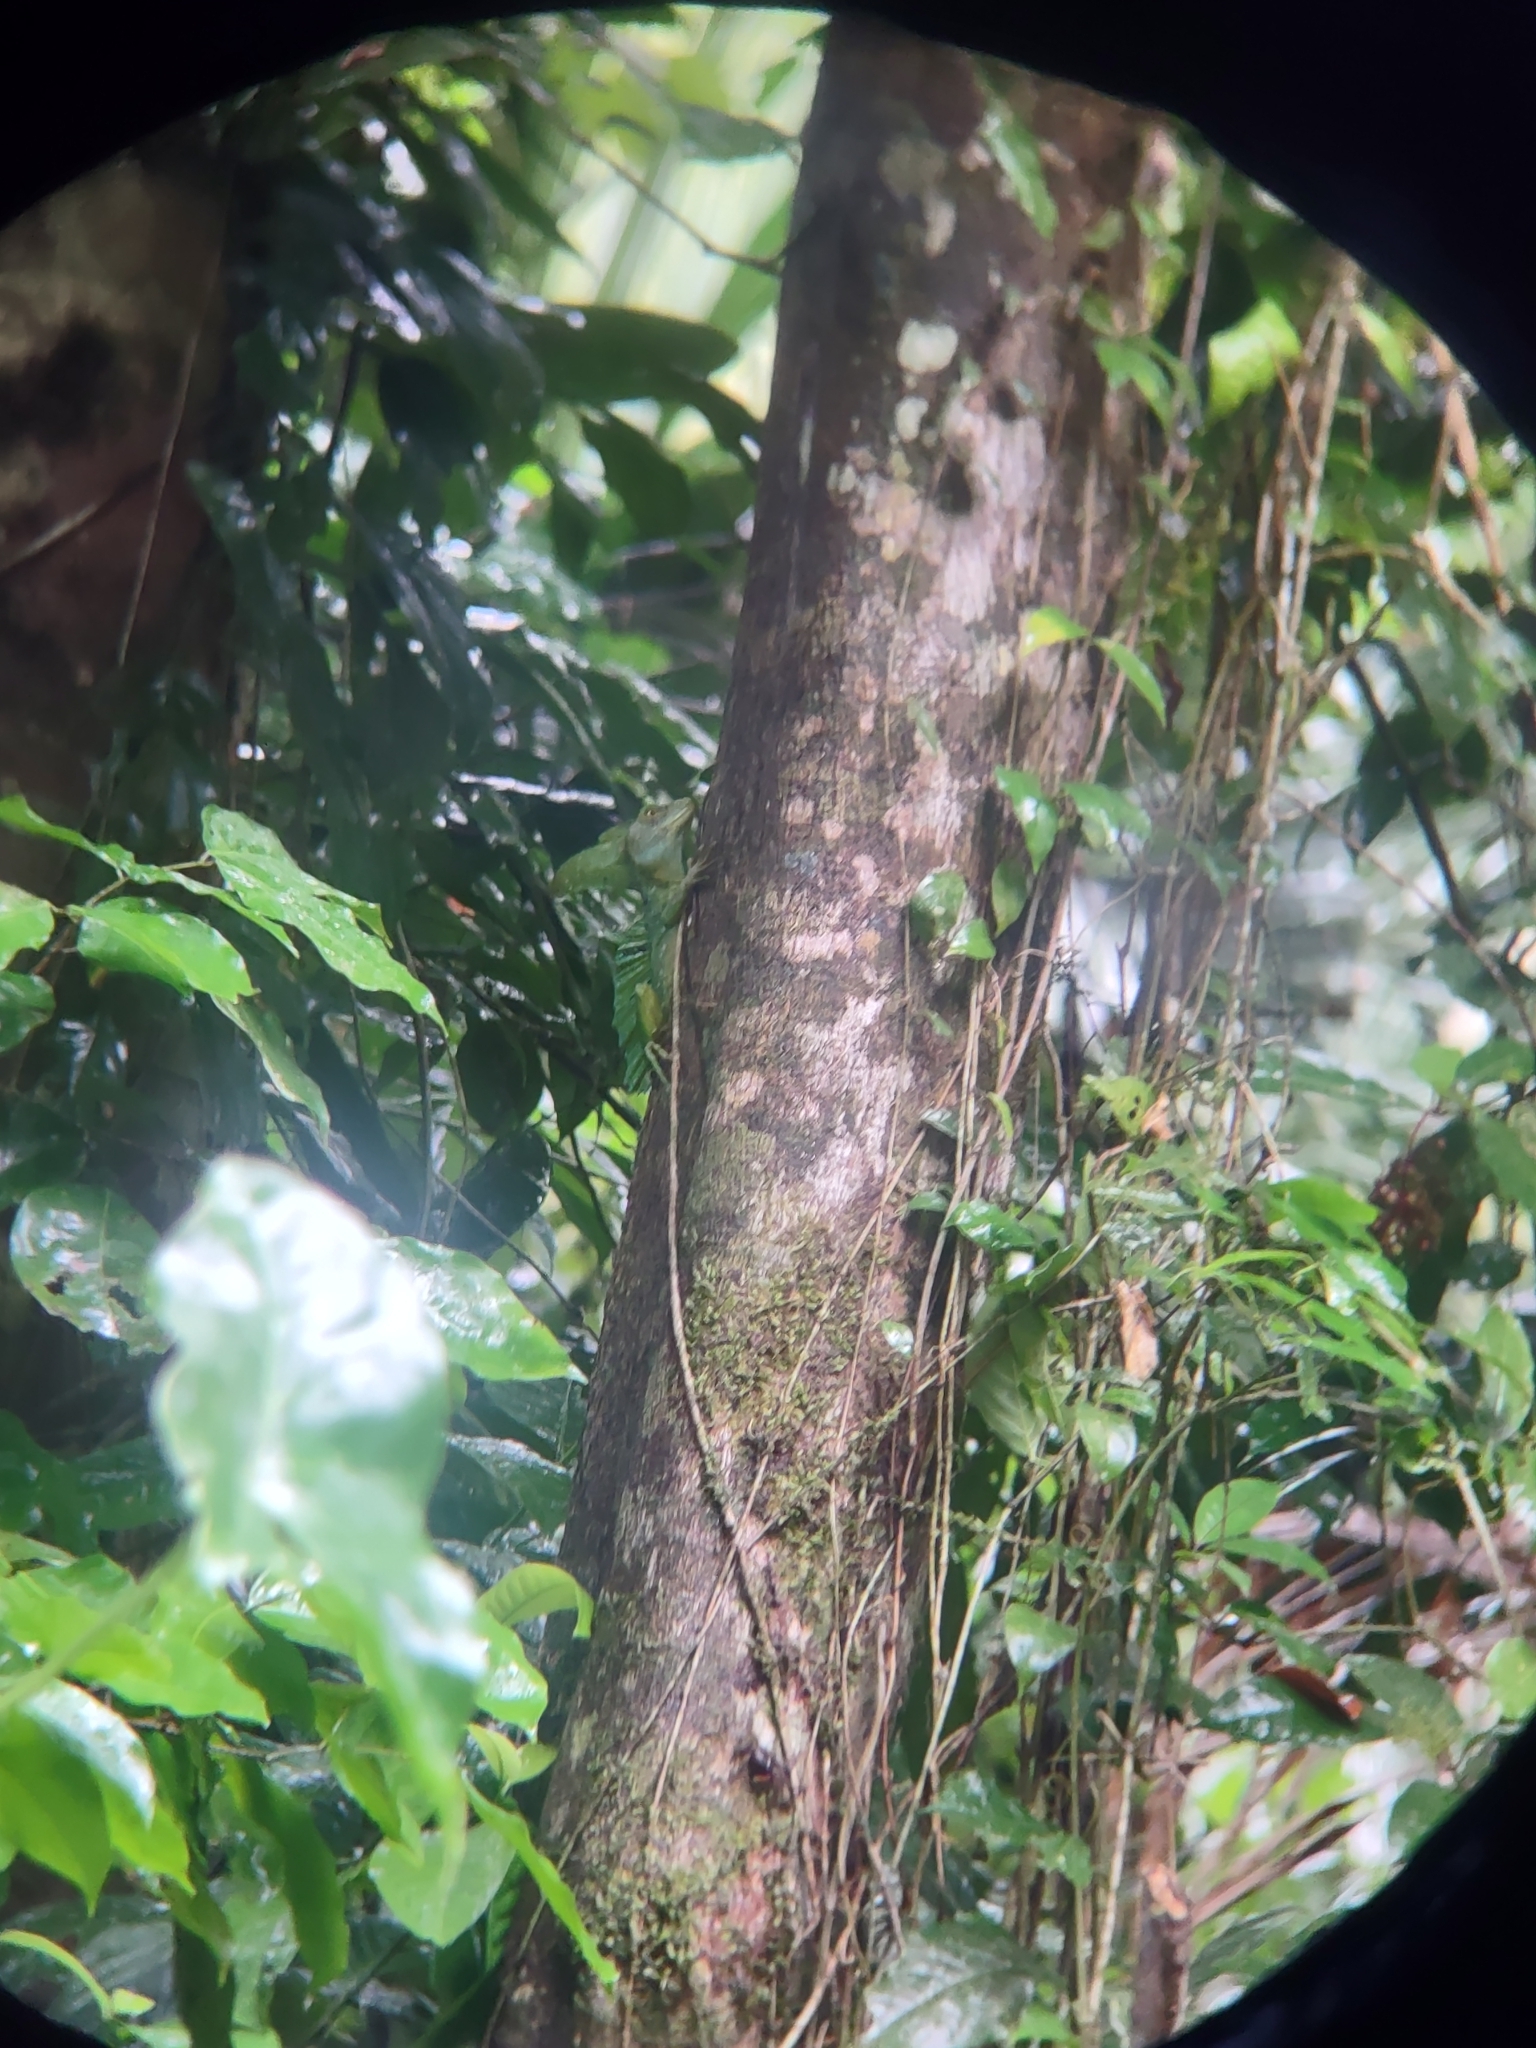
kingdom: Animalia
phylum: Chordata
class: Squamata
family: Corytophanidae
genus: Basiliscus
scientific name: Basiliscus plumifrons
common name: Green basilisk
